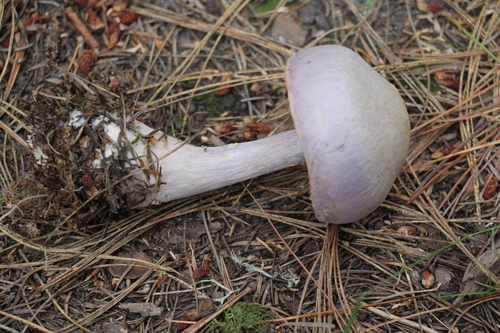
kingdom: Fungi
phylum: Basidiomycota
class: Agaricomycetes
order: Agaricales
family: Cortinariaceae
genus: Cortinarius
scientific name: Cortinarius camphoratus
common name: Goatcheese webcap
